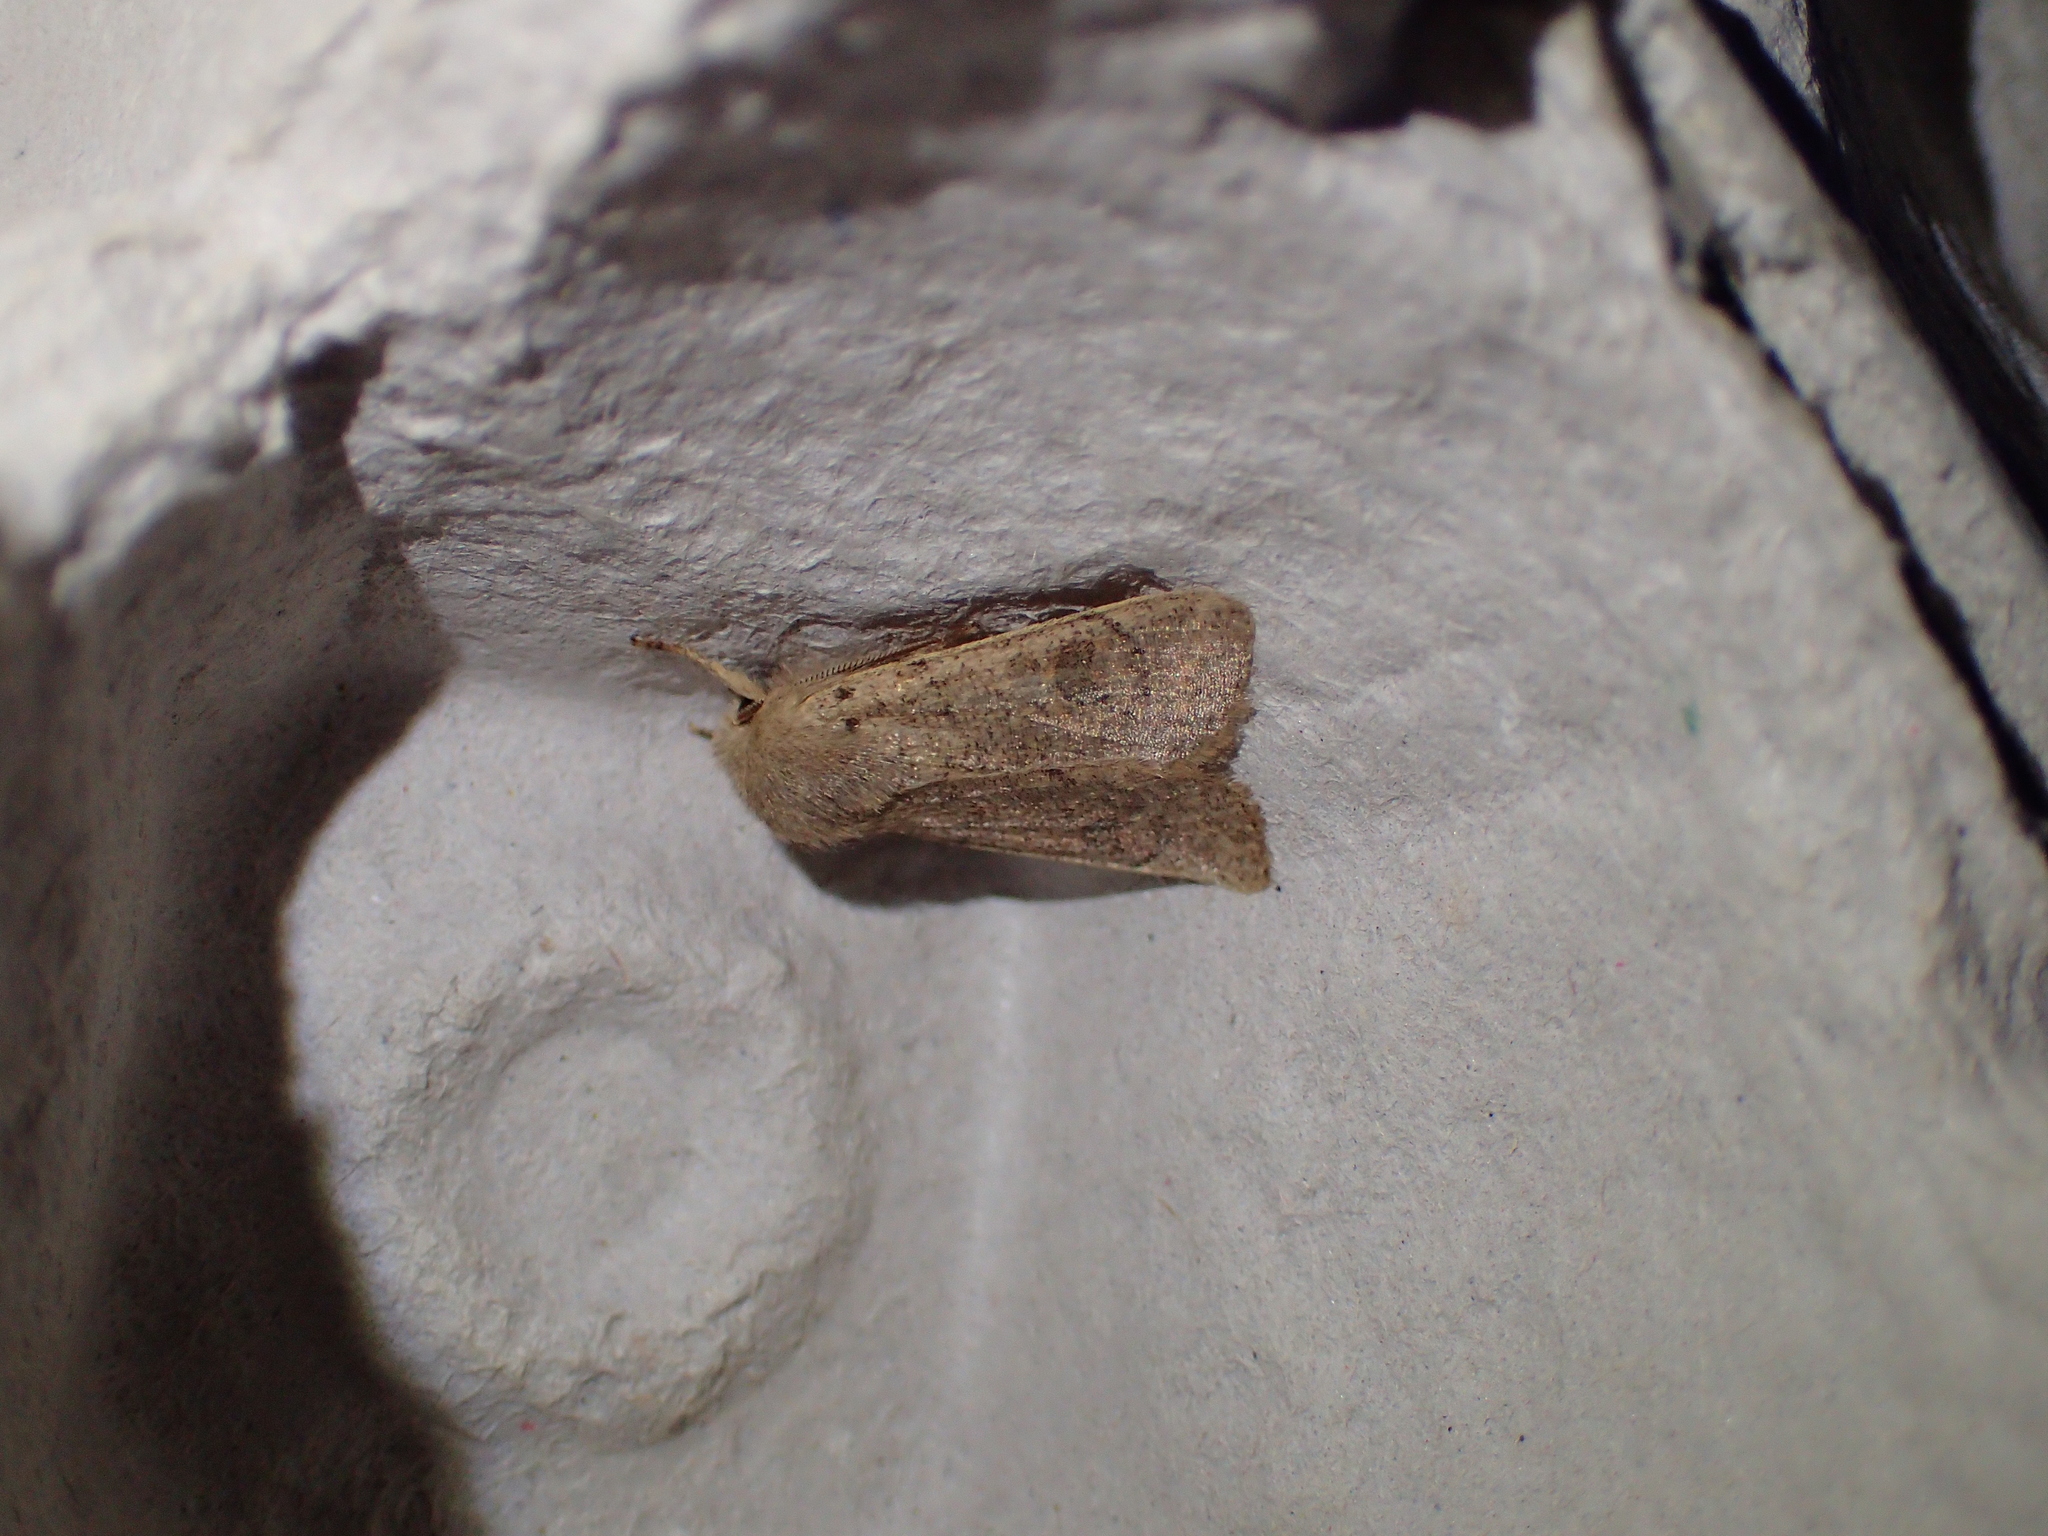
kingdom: Animalia
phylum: Arthropoda
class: Insecta
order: Lepidoptera
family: Noctuidae
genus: Orthosia
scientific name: Orthosia cruda
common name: Small quaker
